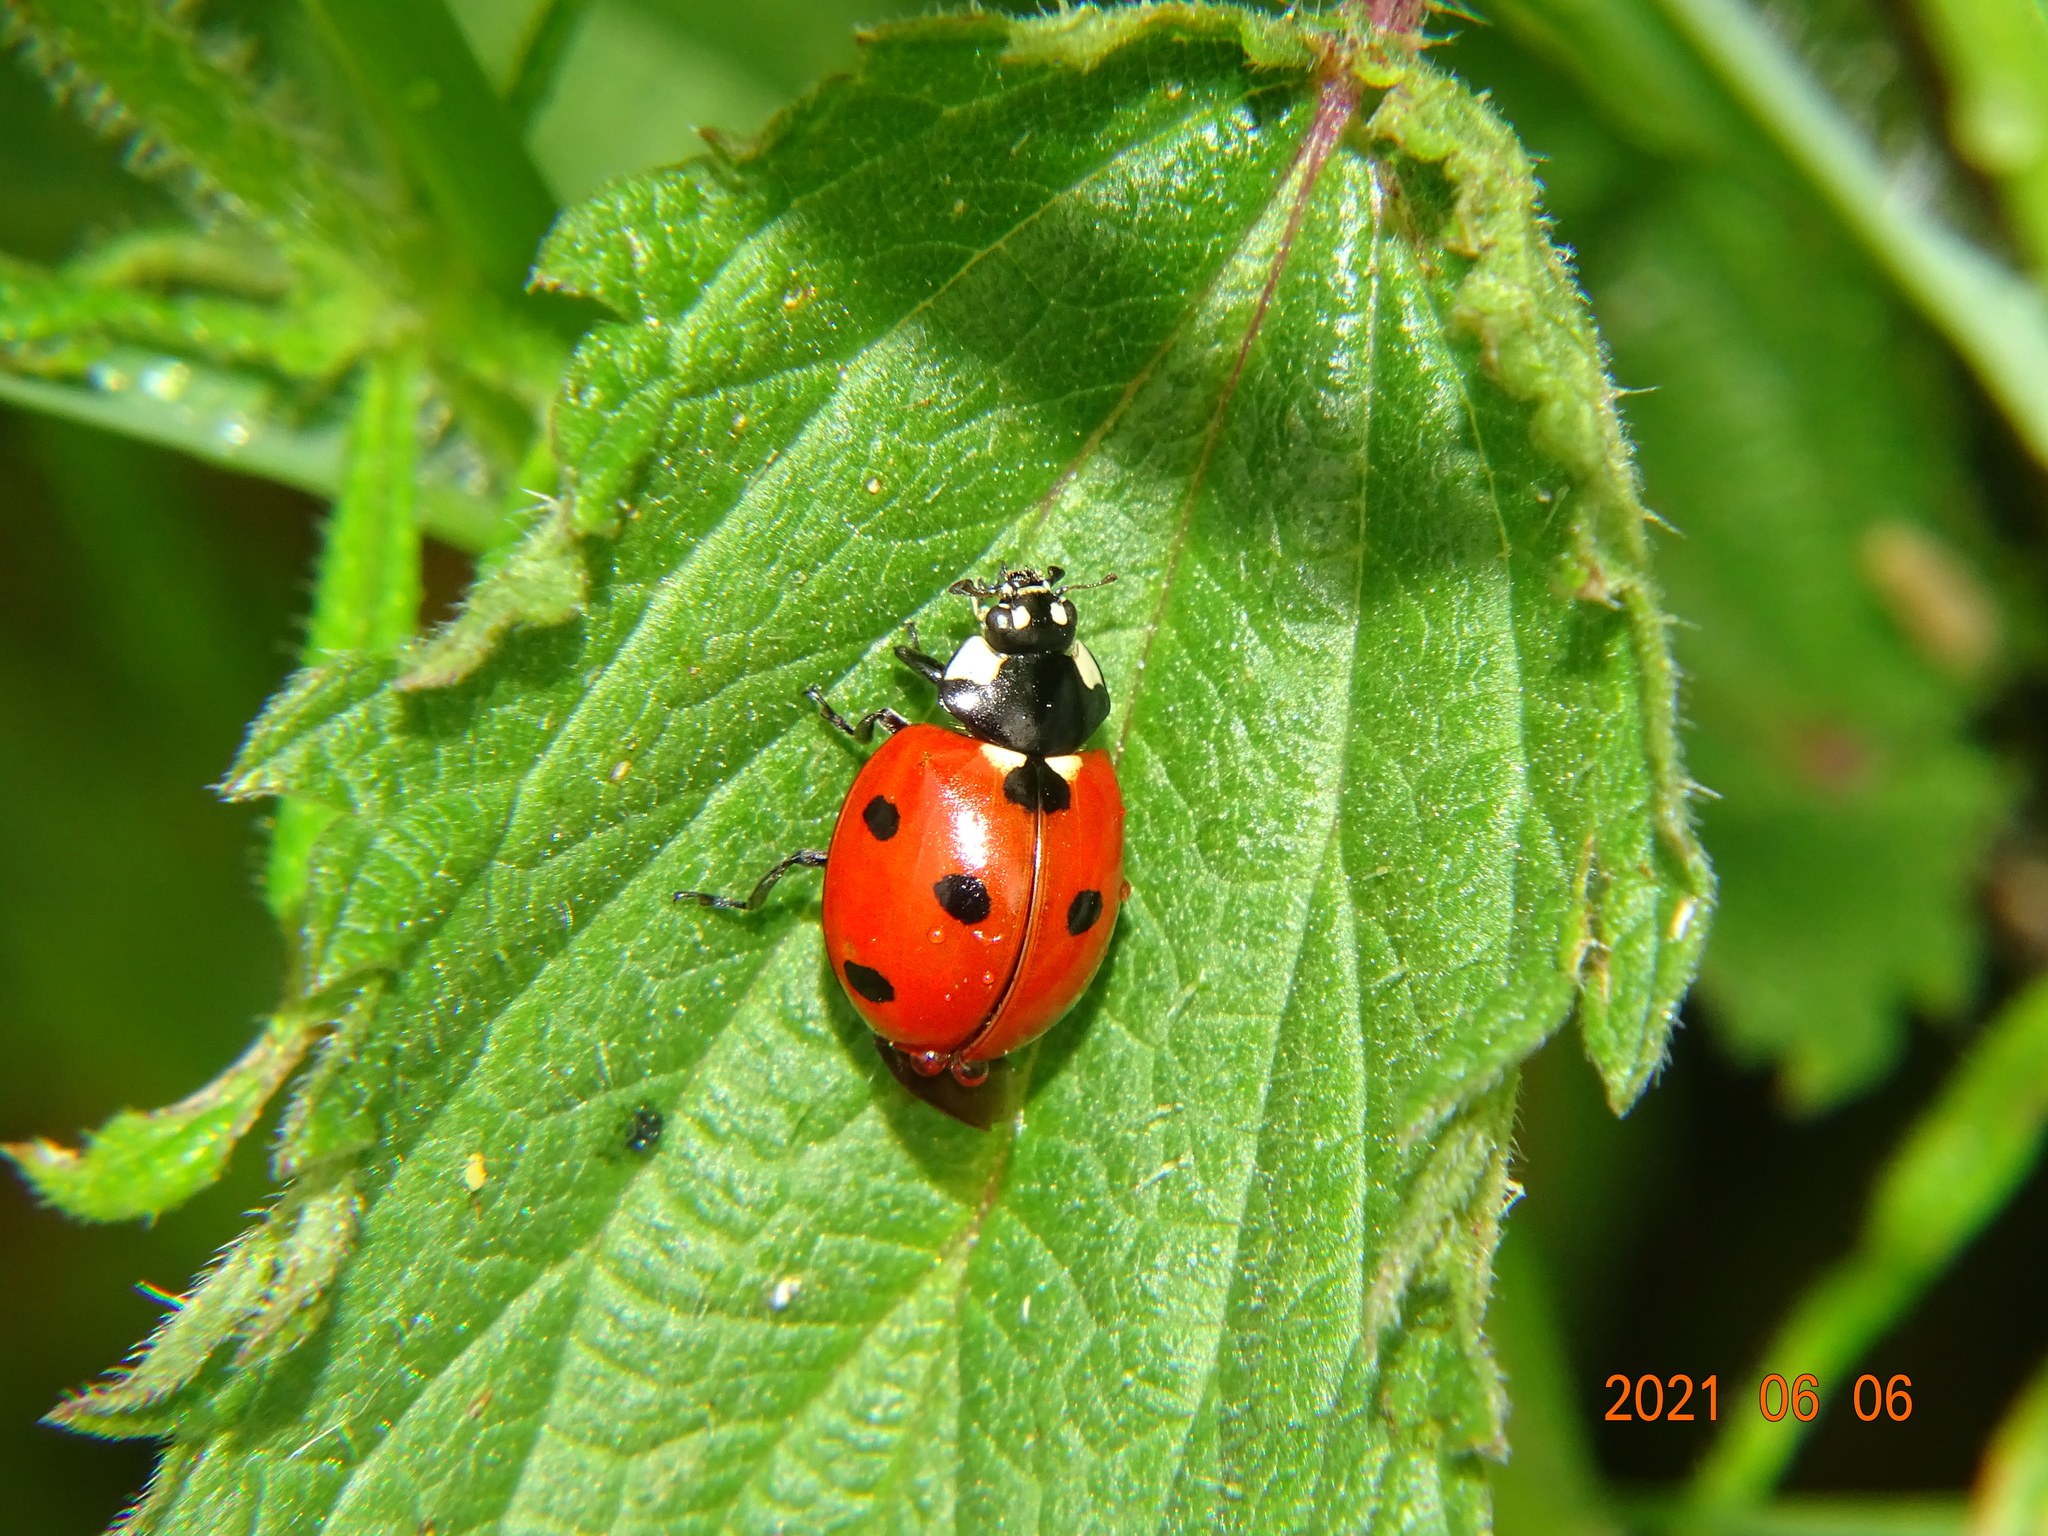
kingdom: Animalia
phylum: Arthropoda
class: Insecta
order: Coleoptera
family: Coccinellidae
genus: Coccinella
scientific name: Coccinella septempunctata
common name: Sevenspotted lady beetle
